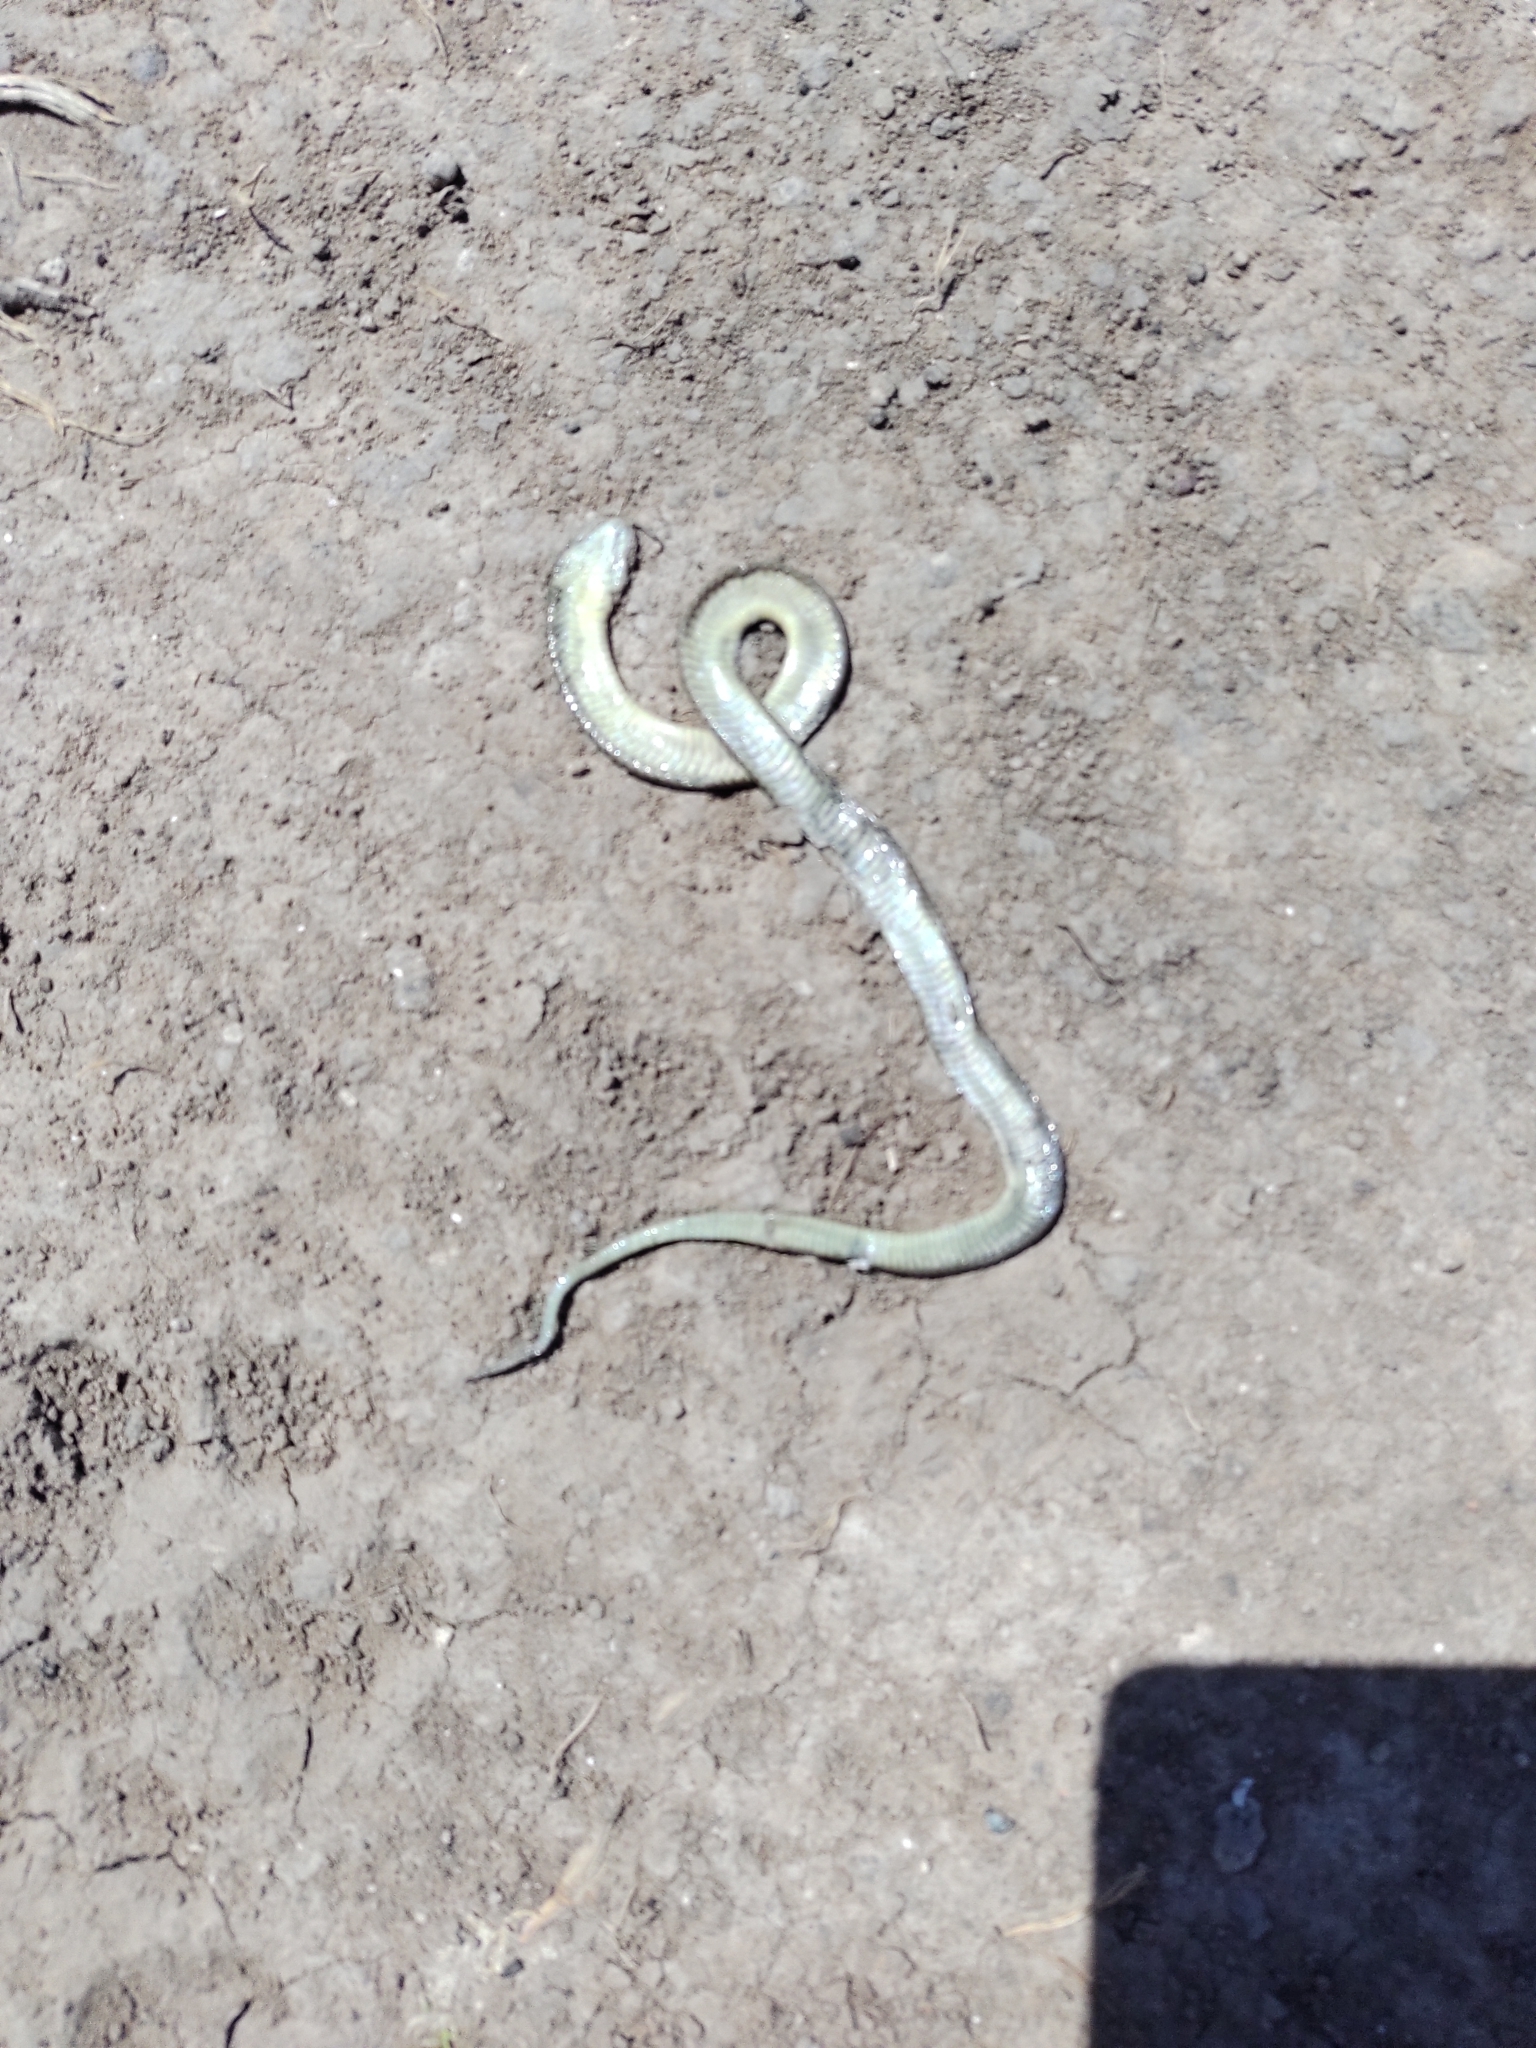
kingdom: Animalia
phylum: Chordata
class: Squamata
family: Colubridae
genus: Erythrolamprus
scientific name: Erythrolamprus semiaureus
